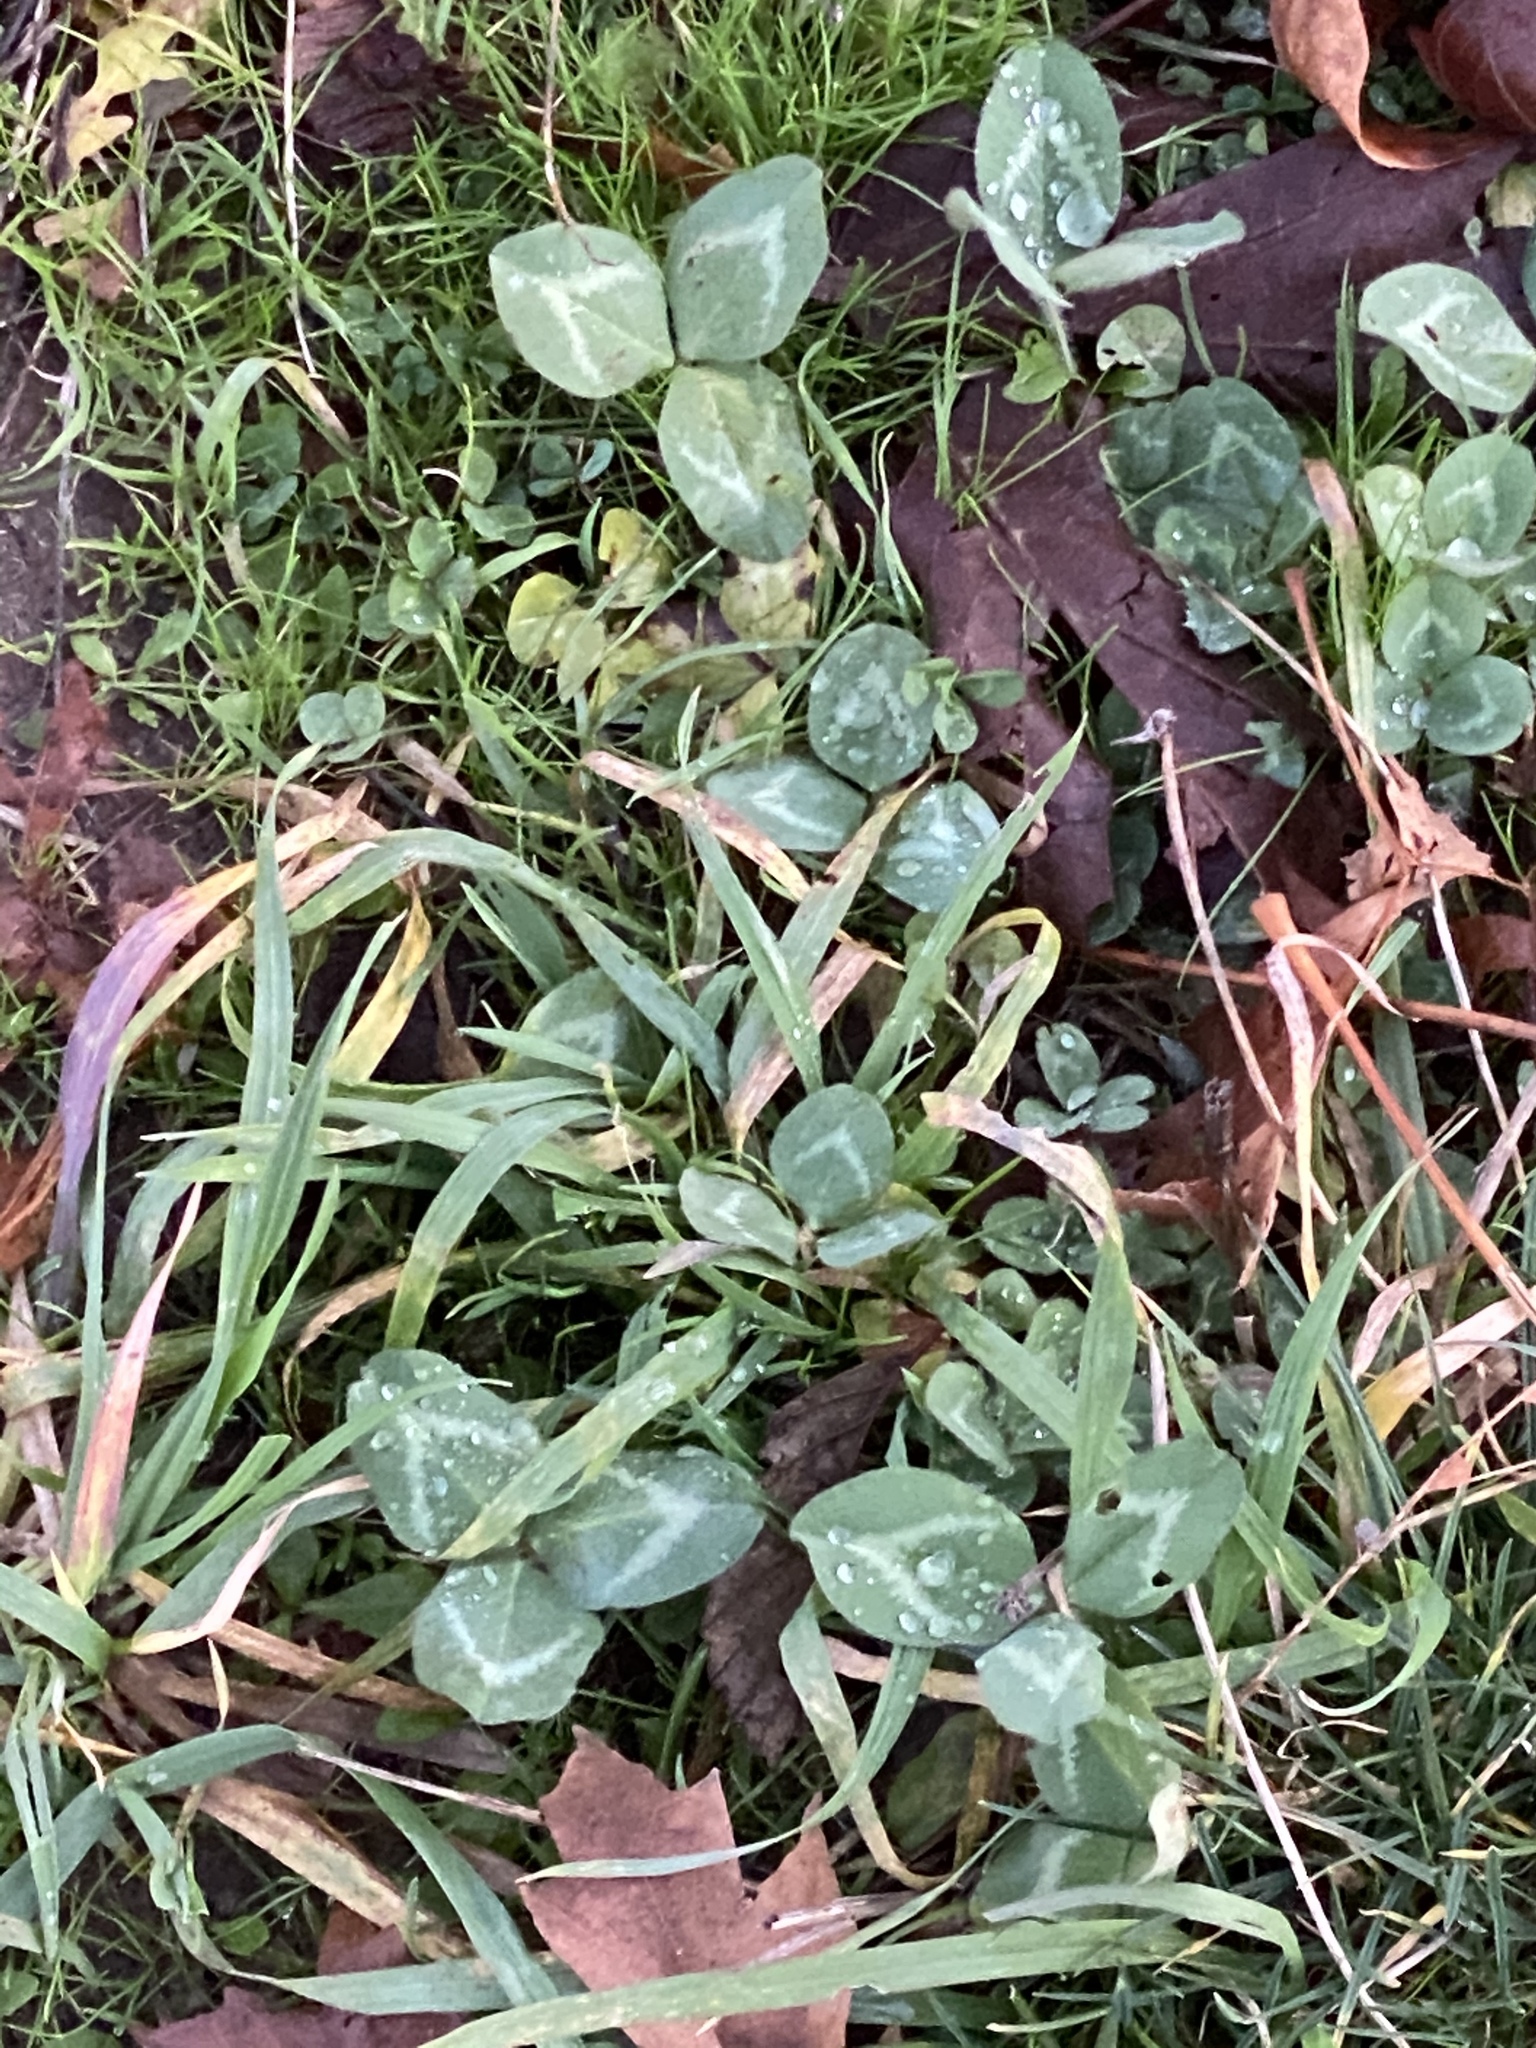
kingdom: Plantae
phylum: Tracheophyta
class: Magnoliopsida
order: Fabales
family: Fabaceae
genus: Trifolium
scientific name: Trifolium pratense
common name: Red clover
